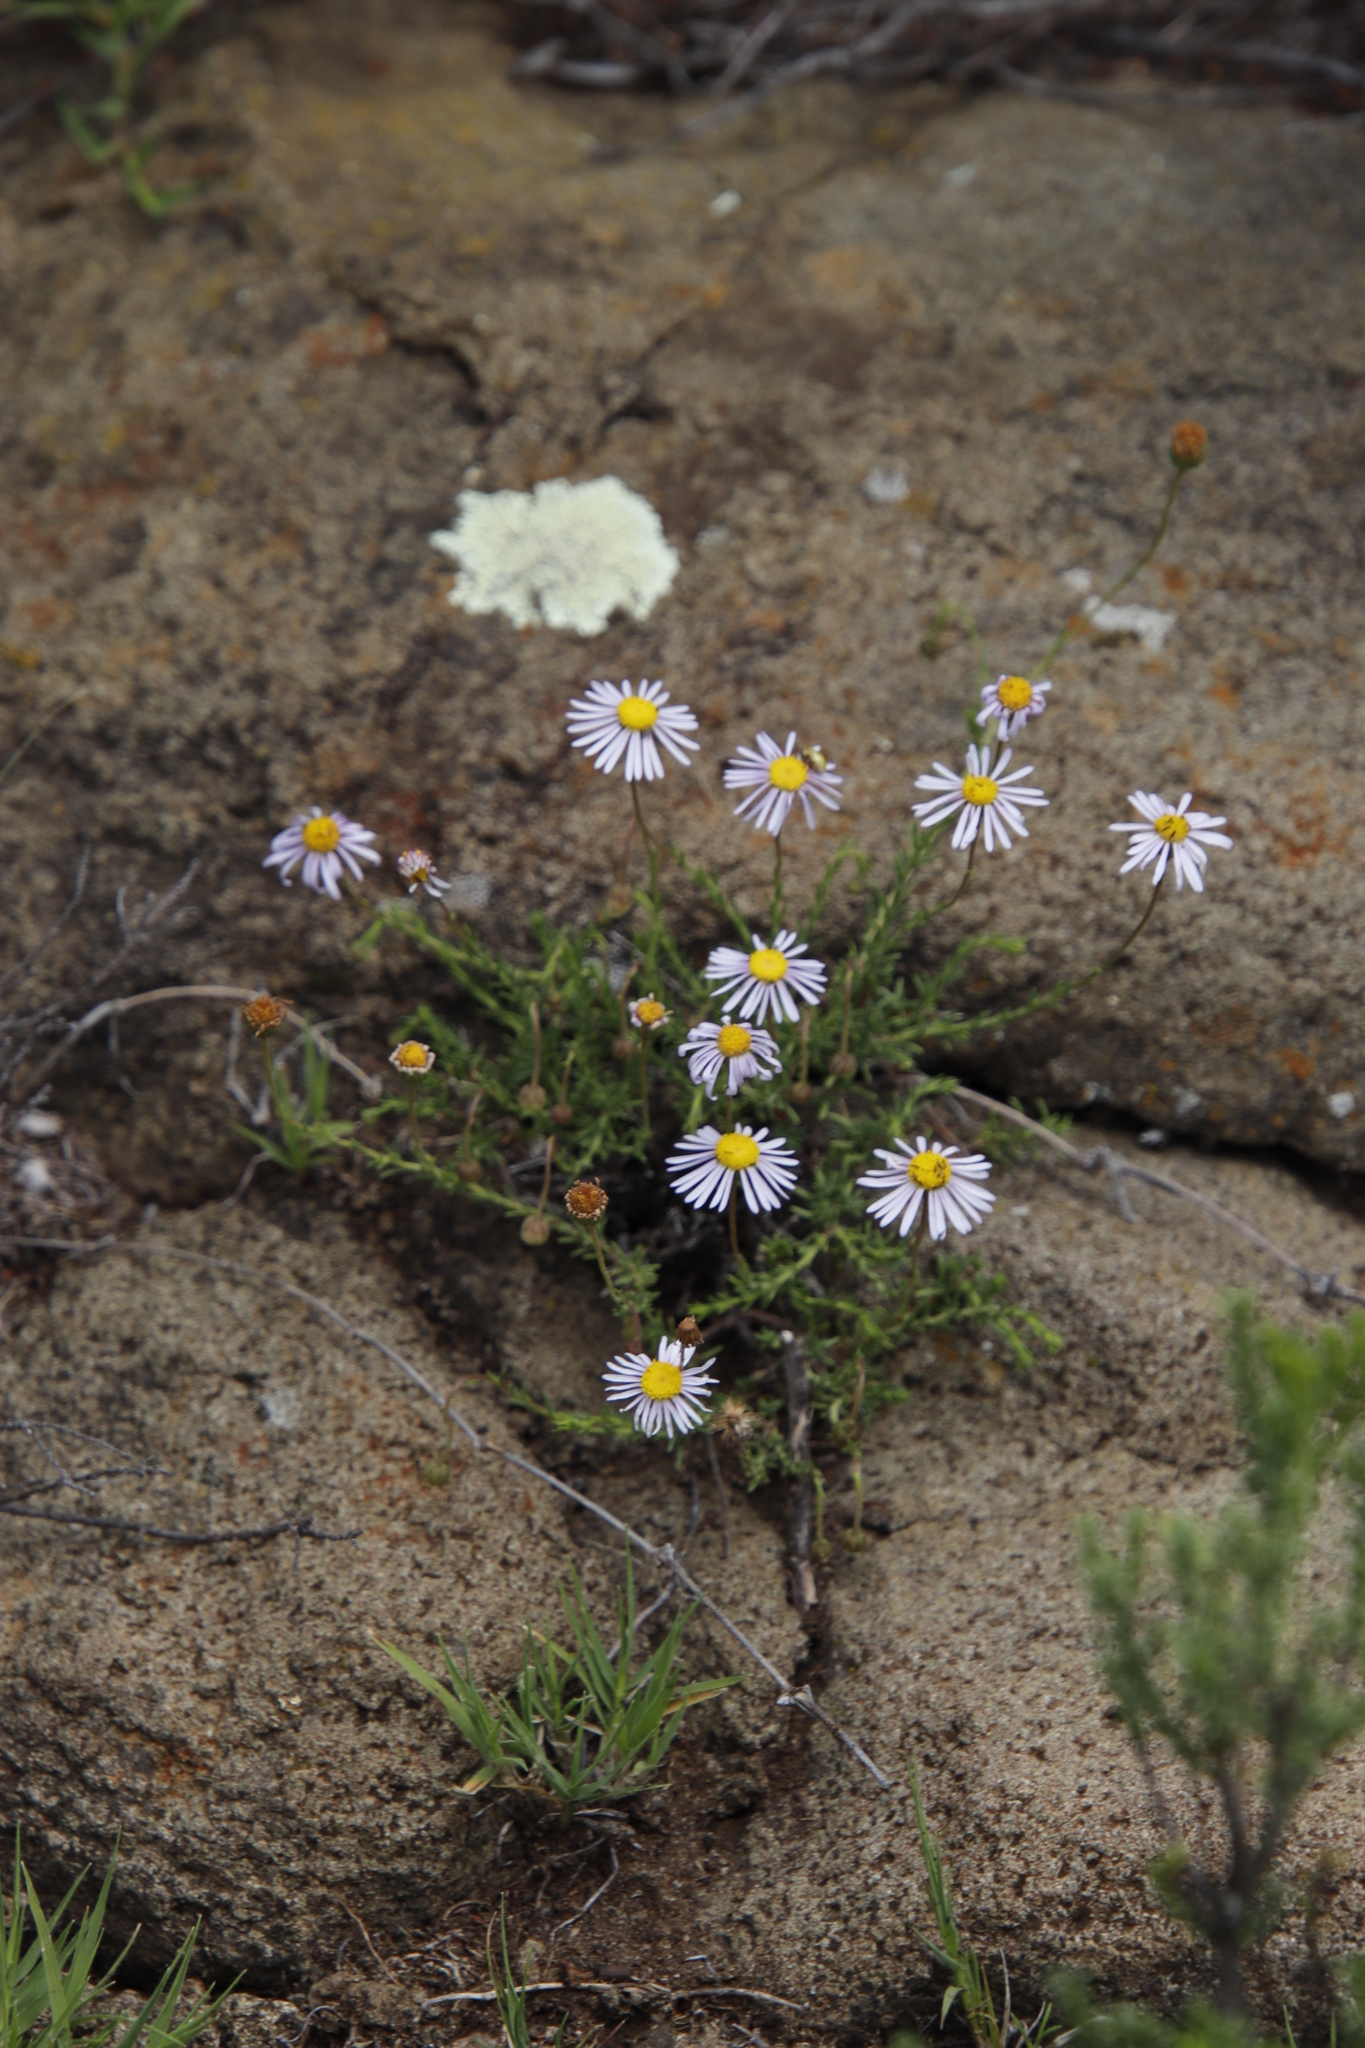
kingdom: Plantae
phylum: Tracheophyta
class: Magnoliopsida
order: Asterales
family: Asteraceae
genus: Felicia
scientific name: Felicia muricata
